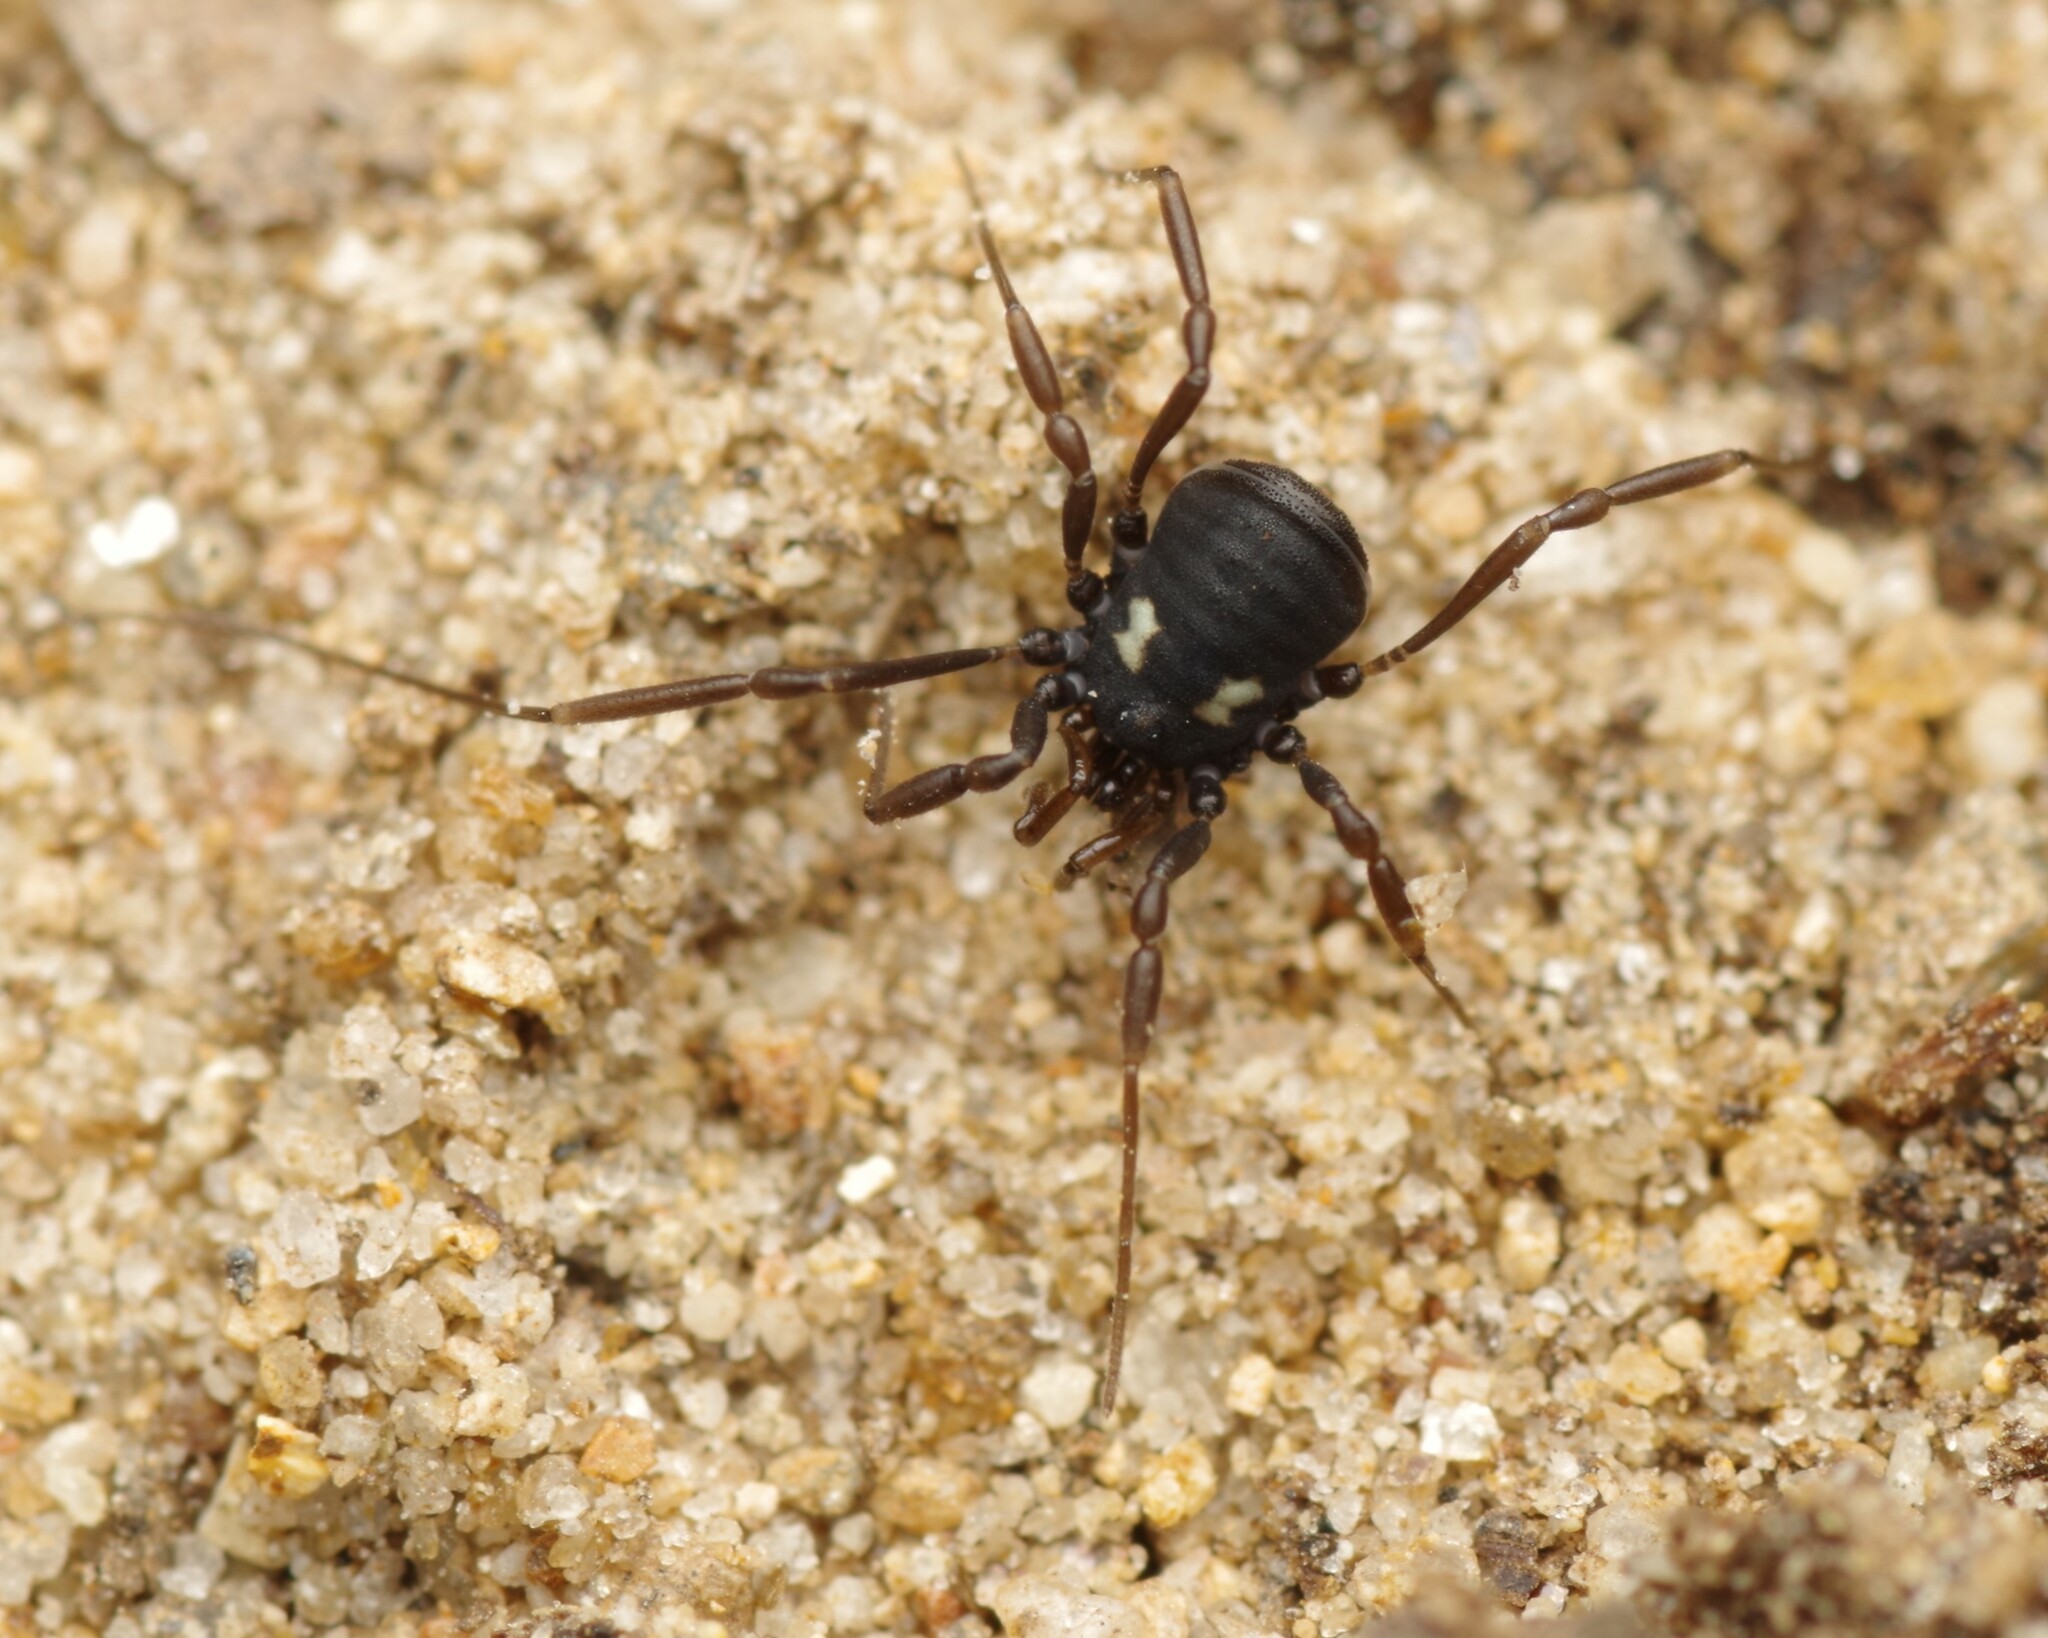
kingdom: Animalia
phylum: Arthropoda
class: Arachnida
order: Opiliones
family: Nemastomatidae
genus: Nemastoma
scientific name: Nemastoma bimaculatum
